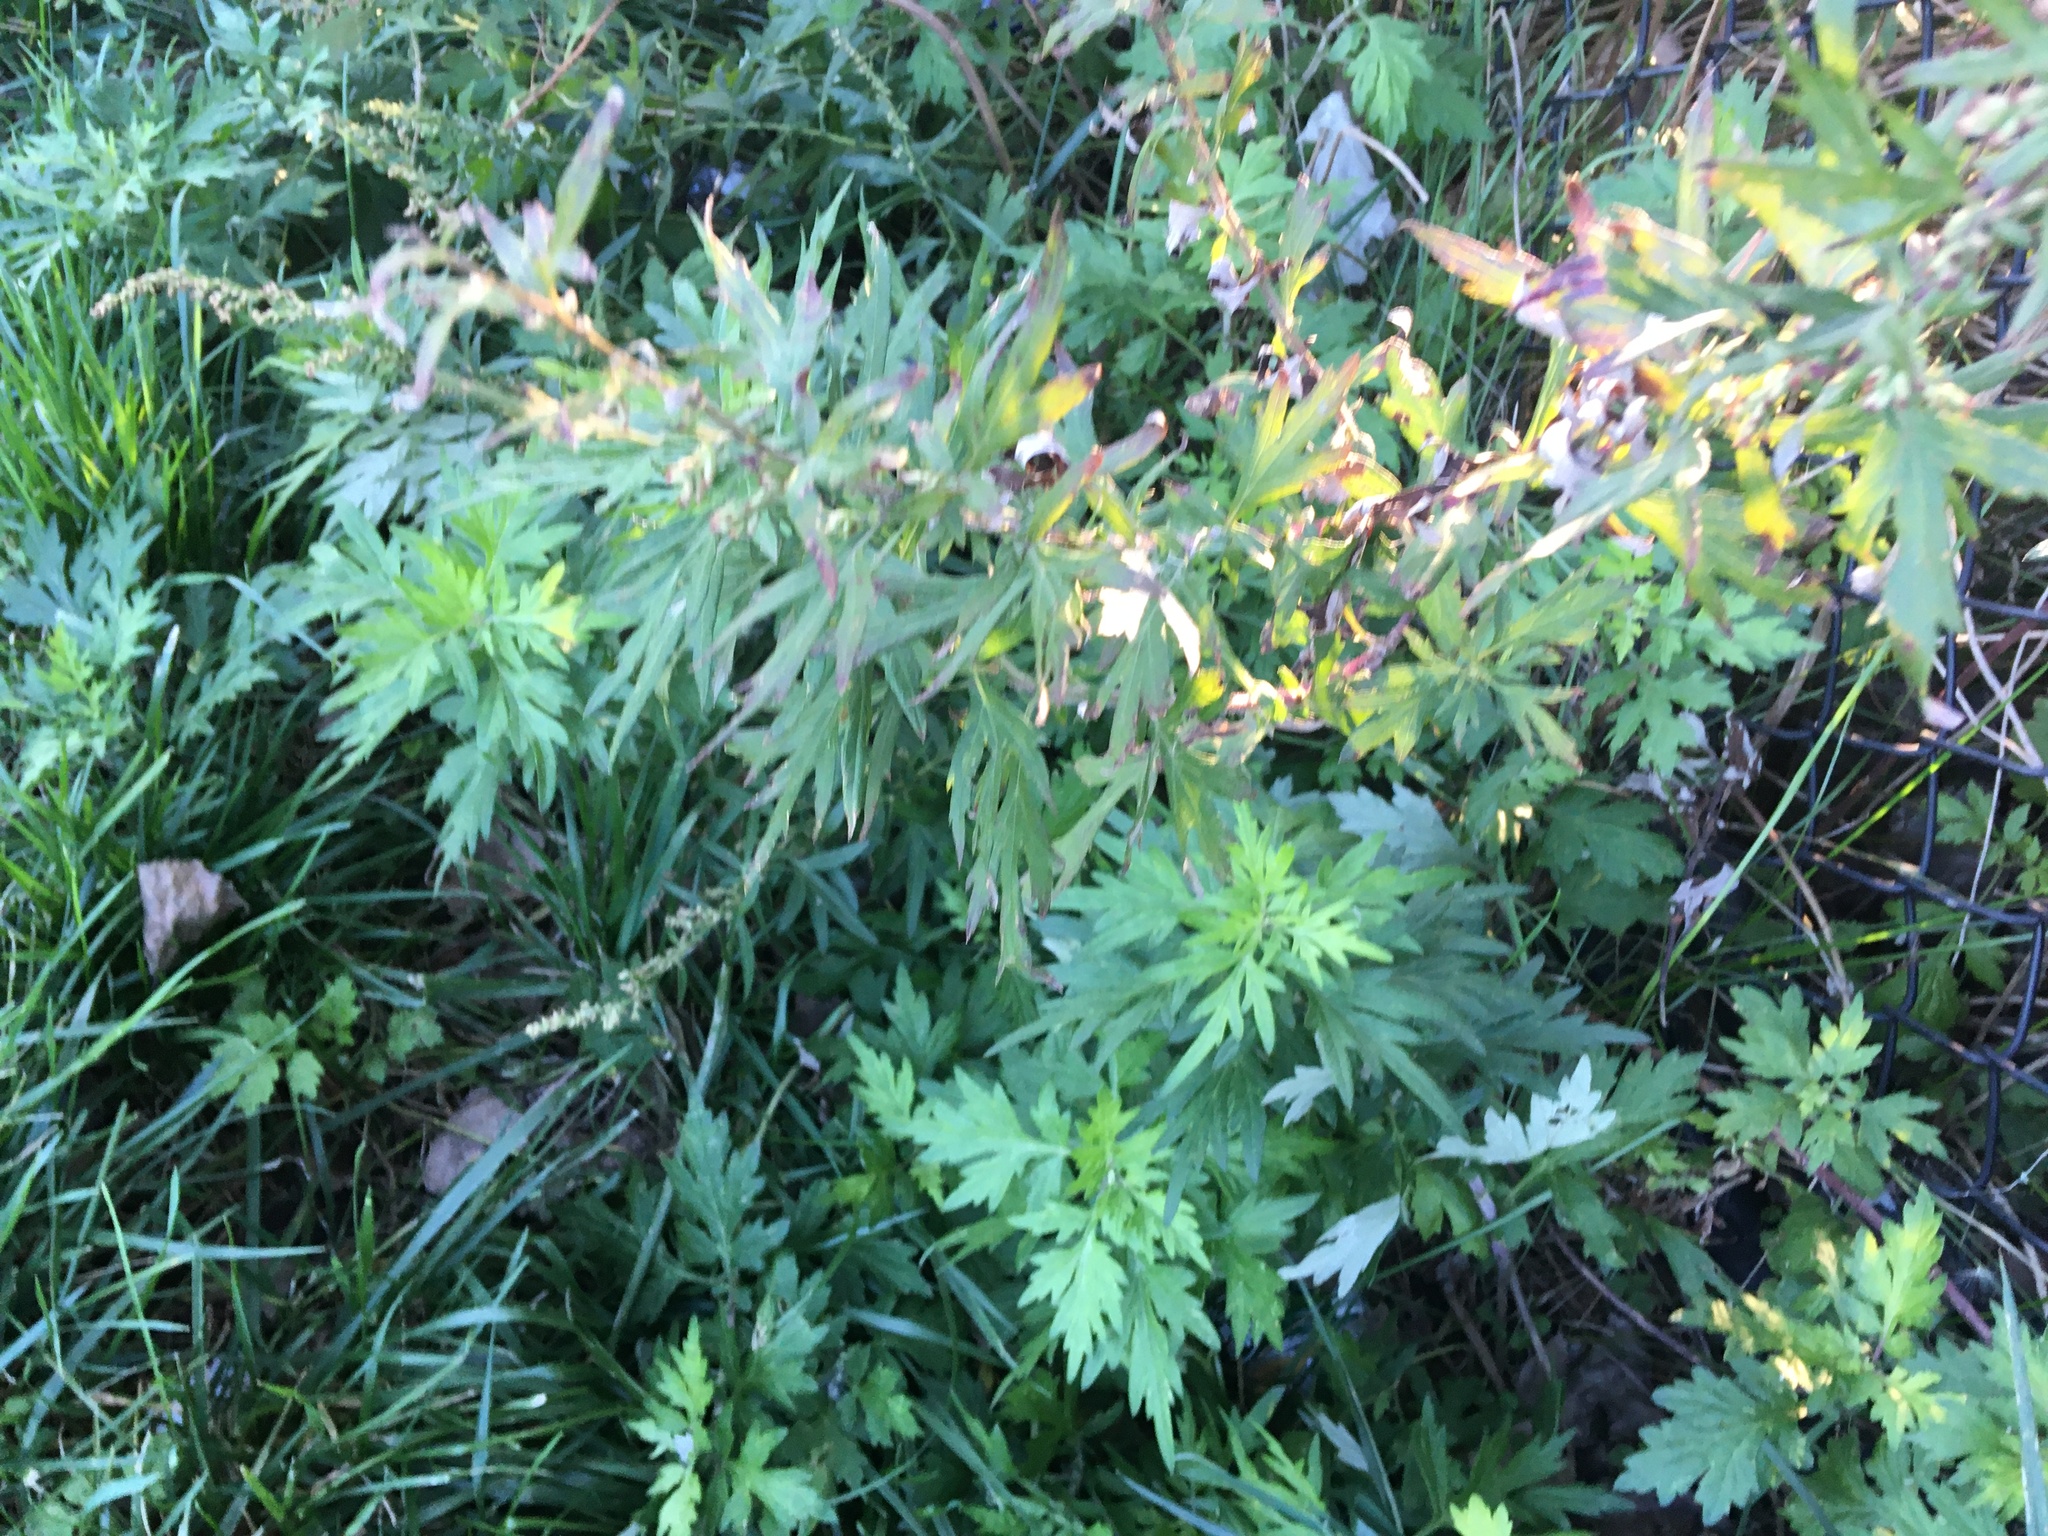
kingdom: Plantae
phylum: Tracheophyta
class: Magnoliopsida
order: Asterales
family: Asteraceae
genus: Artemisia
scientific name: Artemisia vulgaris
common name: Mugwort
